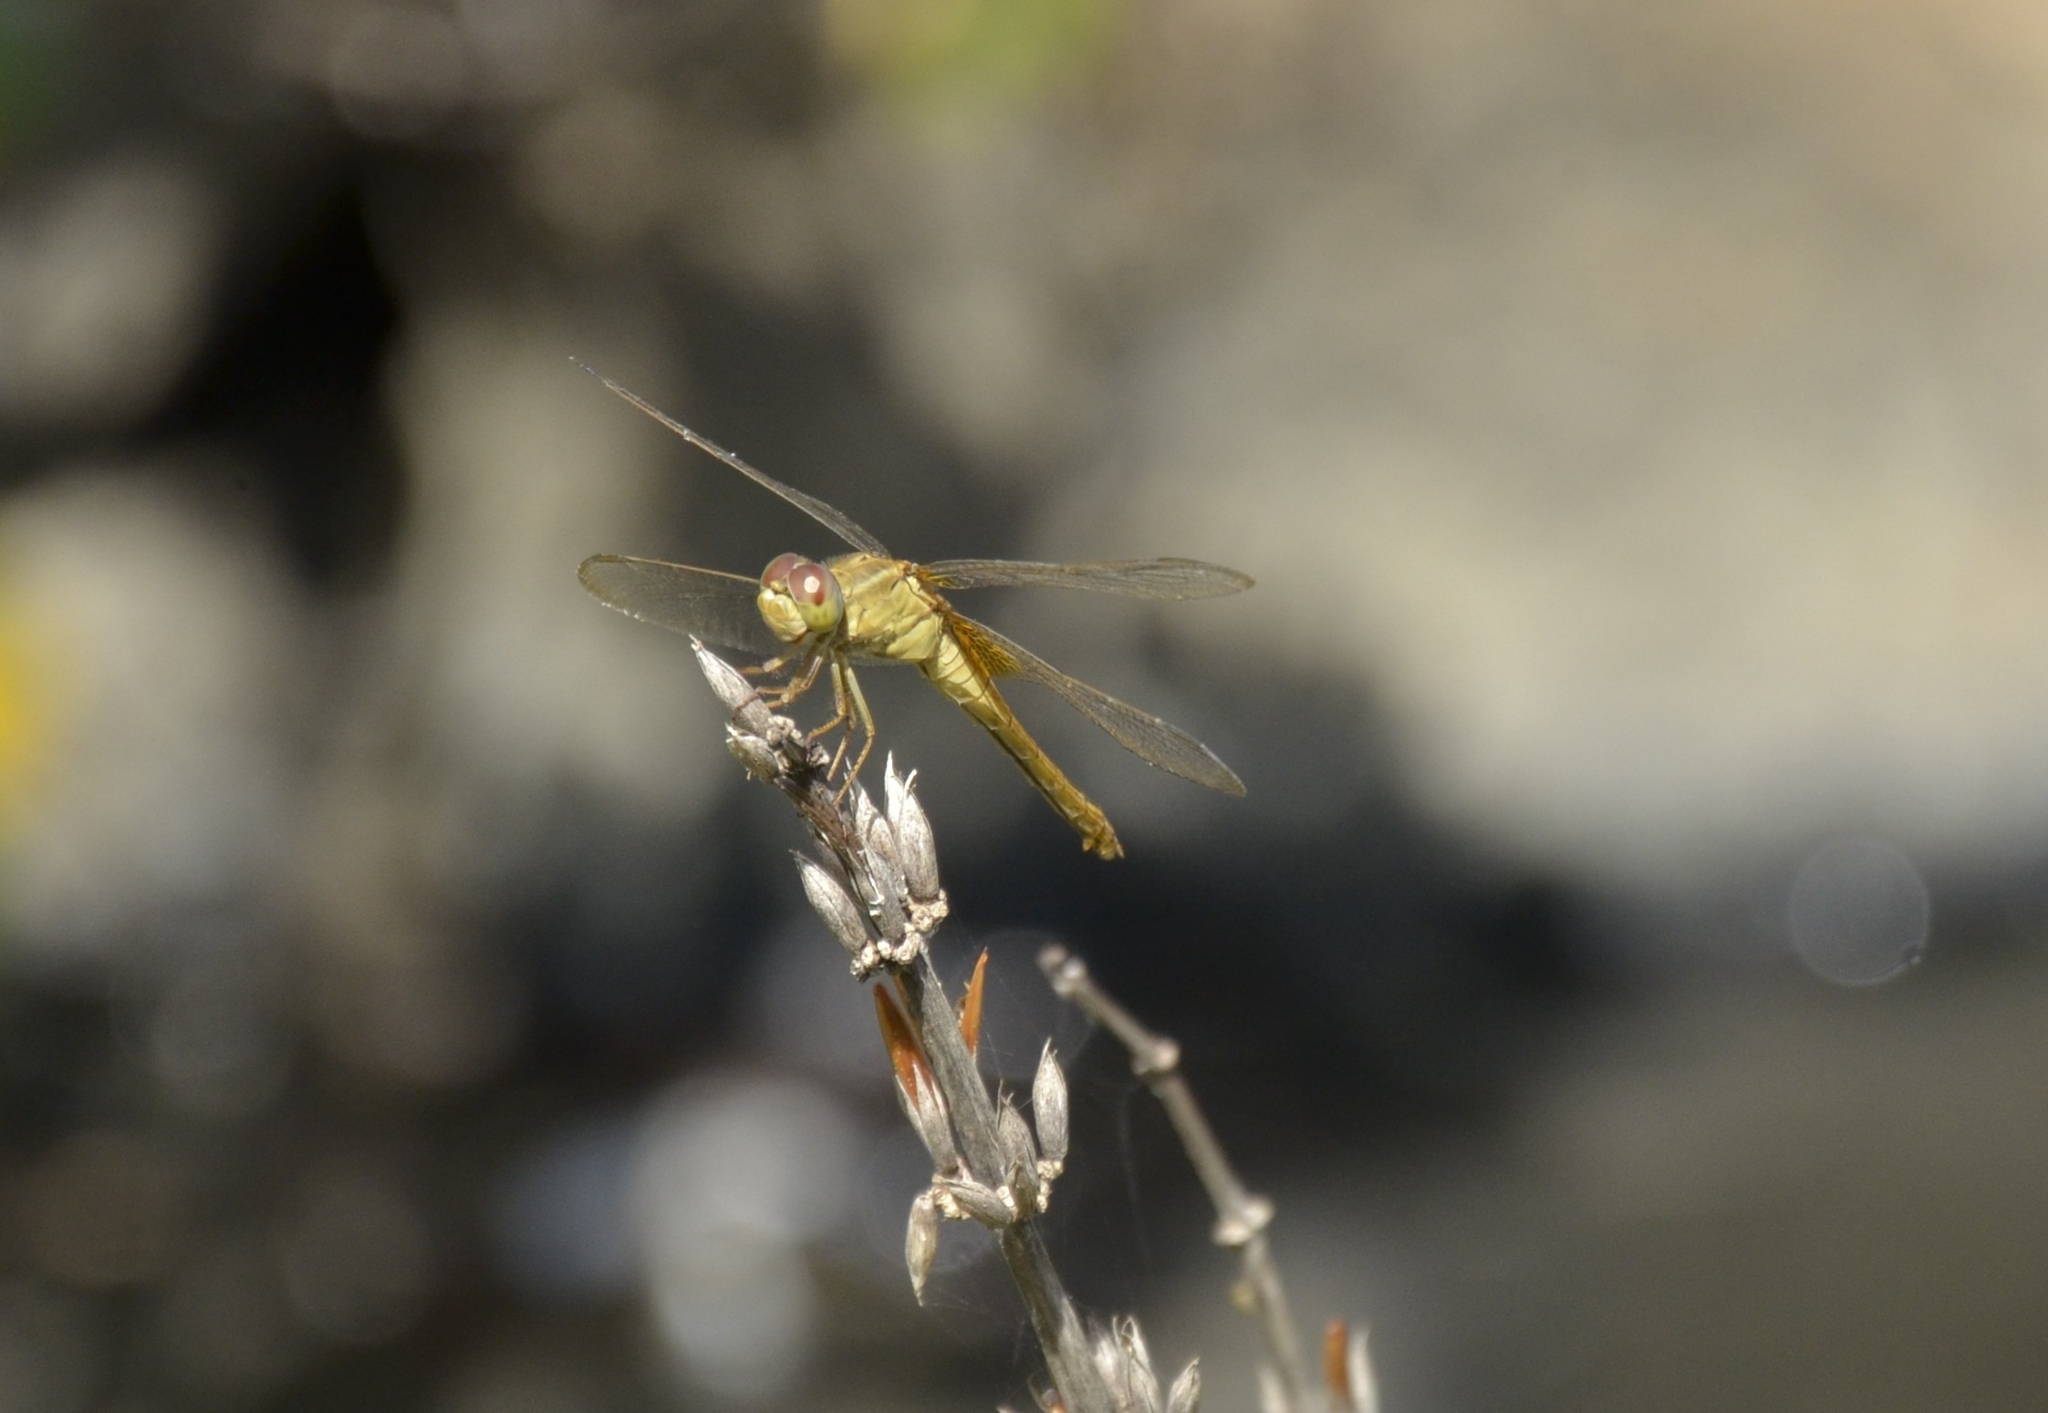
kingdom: Animalia
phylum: Arthropoda
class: Insecta
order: Odonata
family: Libellulidae
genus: Crocothemis
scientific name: Crocothemis servilia
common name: Scarlet skimmer
